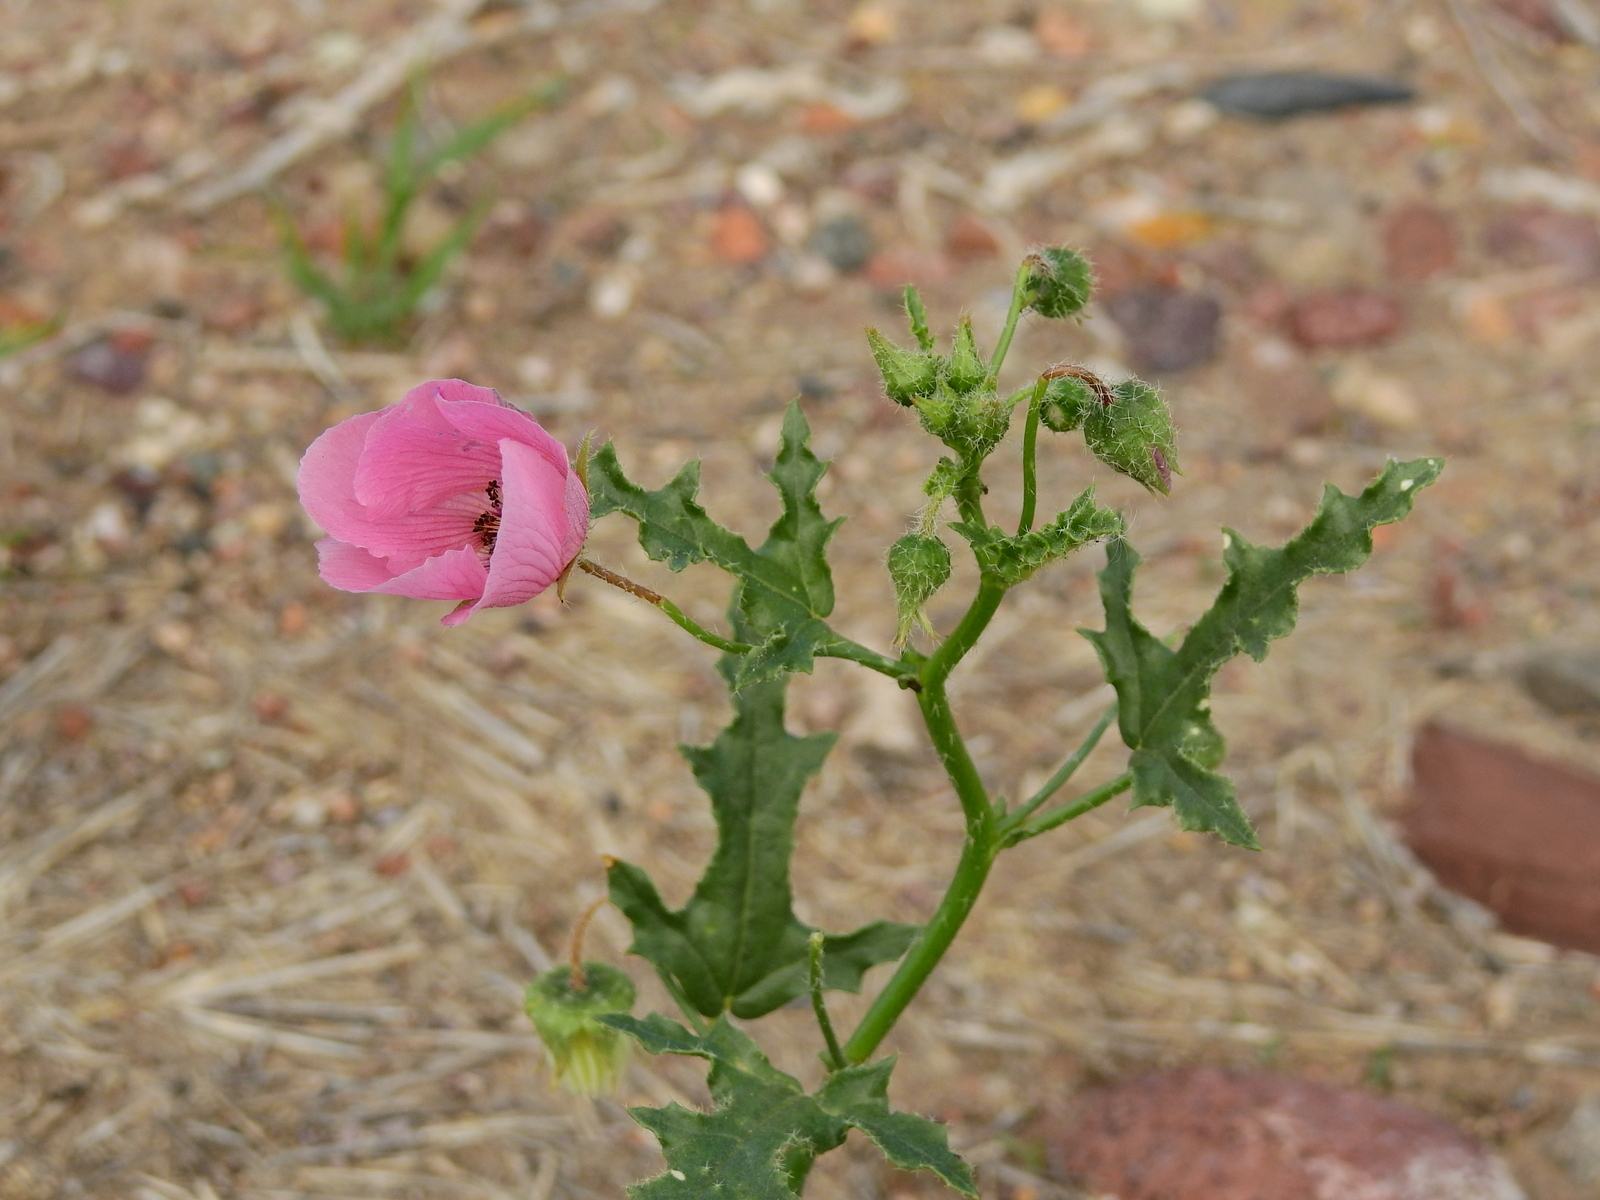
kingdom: Plantae
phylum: Tracheophyta
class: Magnoliopsida
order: Malvales
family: Malvaceae
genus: Lecanophora
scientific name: Lecanophora heterophylla
